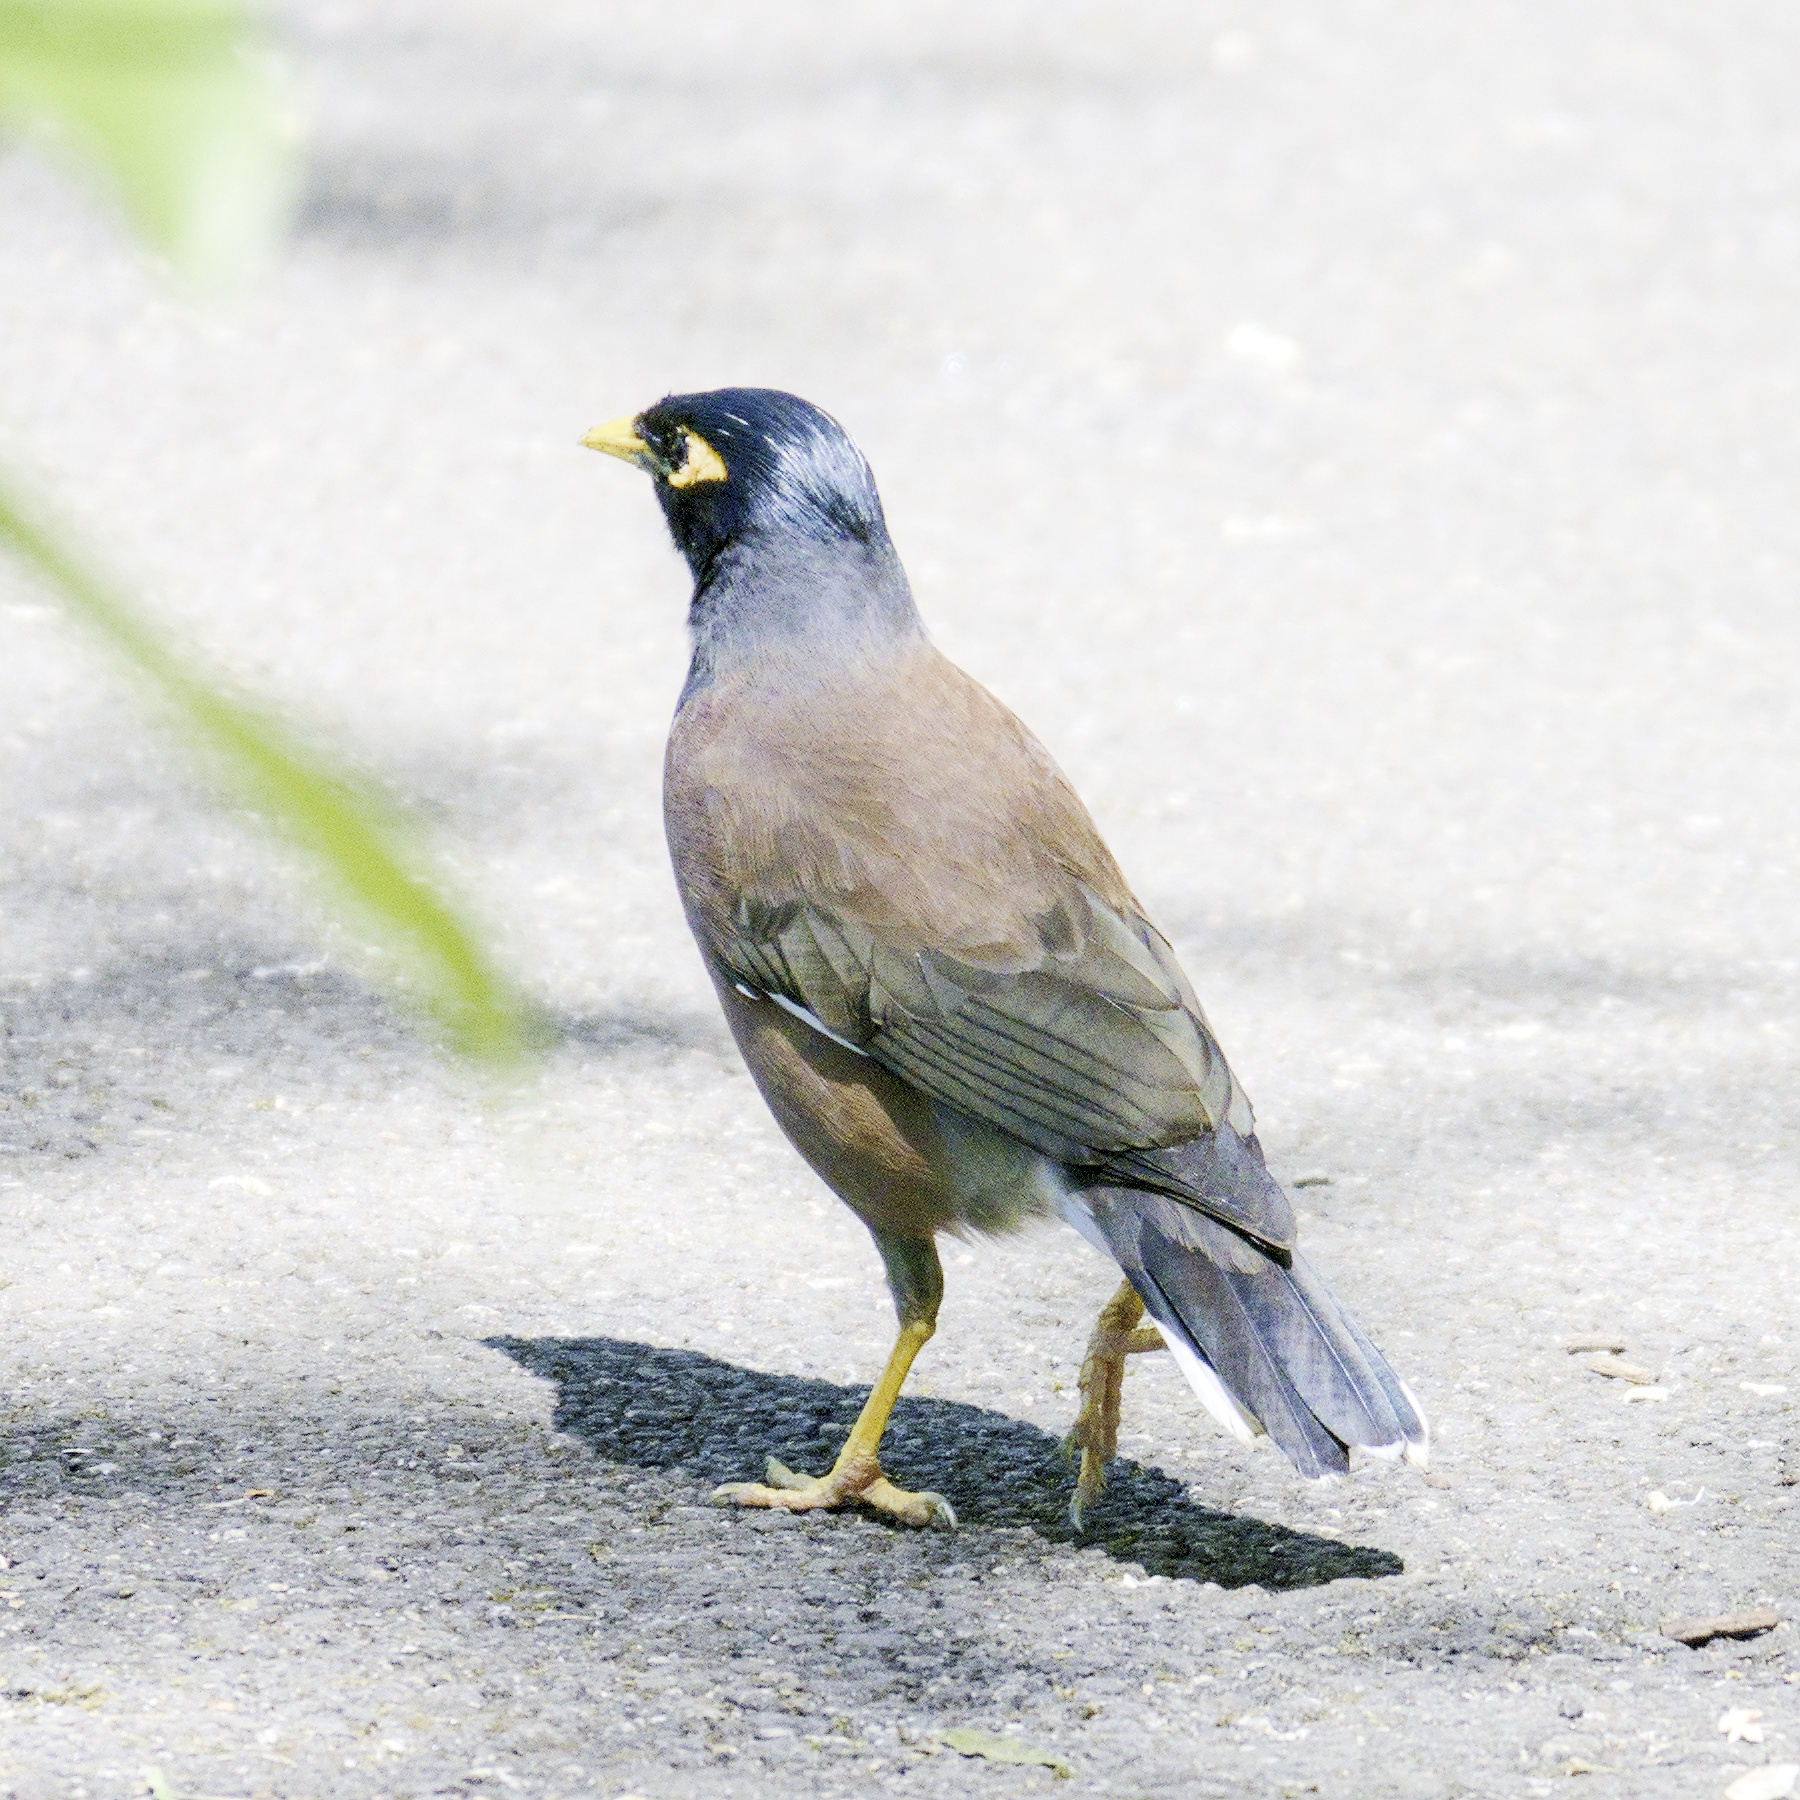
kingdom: Animalia
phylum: Chordata
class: Aves
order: Passeriformes
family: Sturnidae
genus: Acridotheres
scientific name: Acridotheres tristis
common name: Common myna
